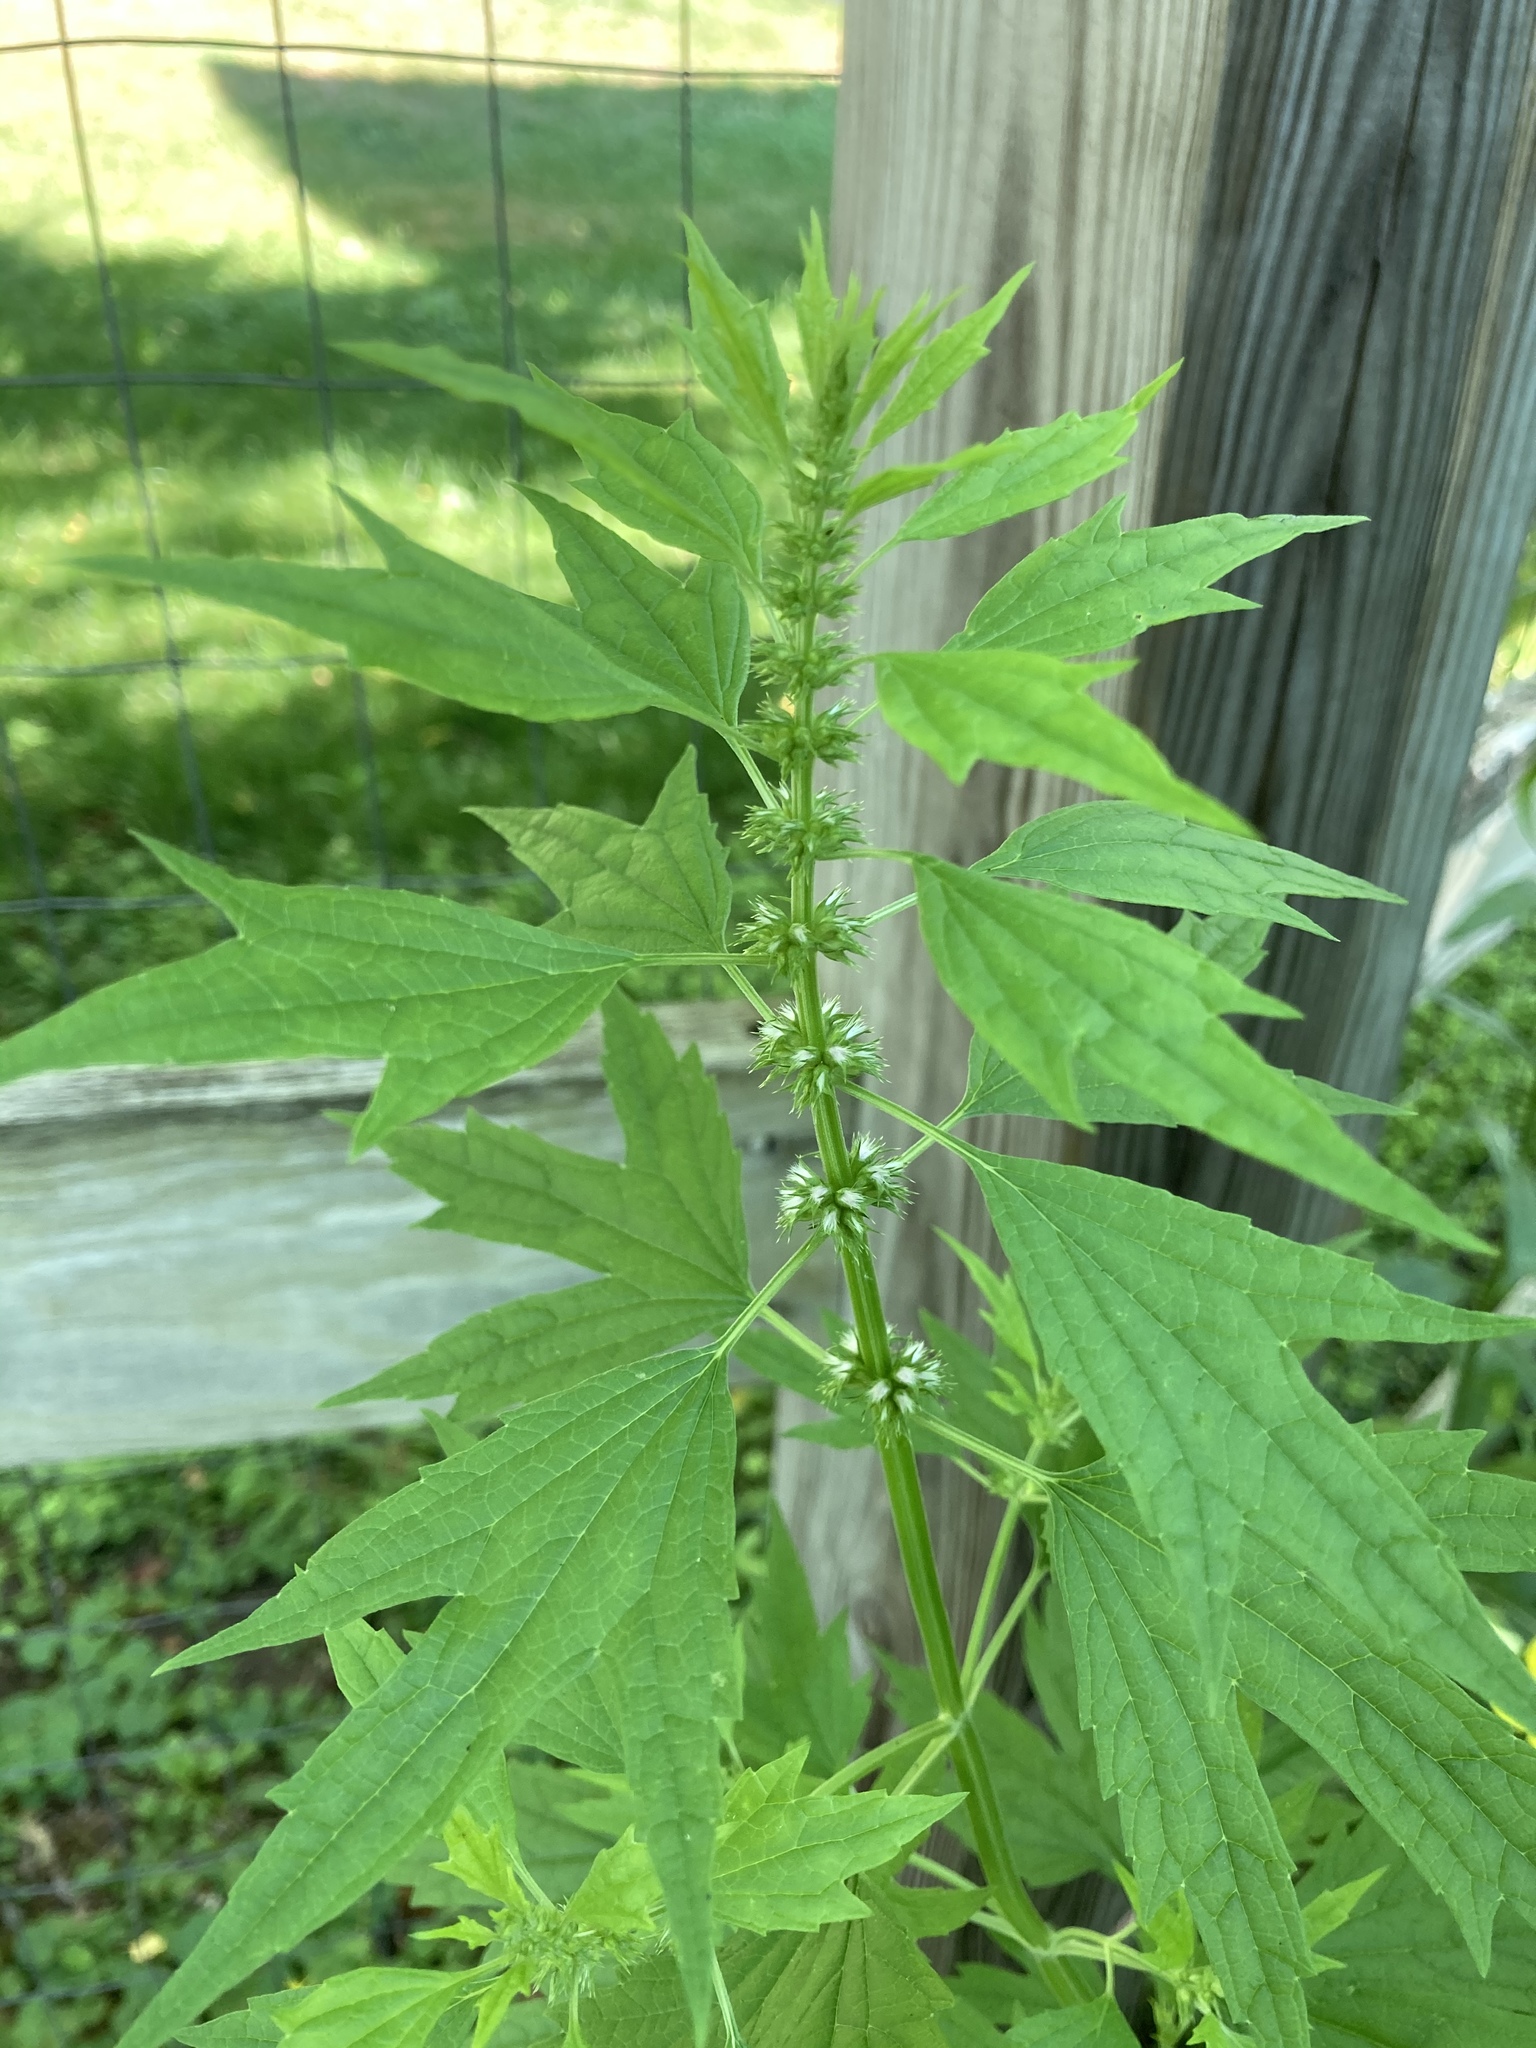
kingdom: Plantae
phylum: Tracheophyta
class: Magnoliopsida
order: Lamiales
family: Lamiaceae
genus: Leonurus
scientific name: Leonurus cardiaca
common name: Motherwort
